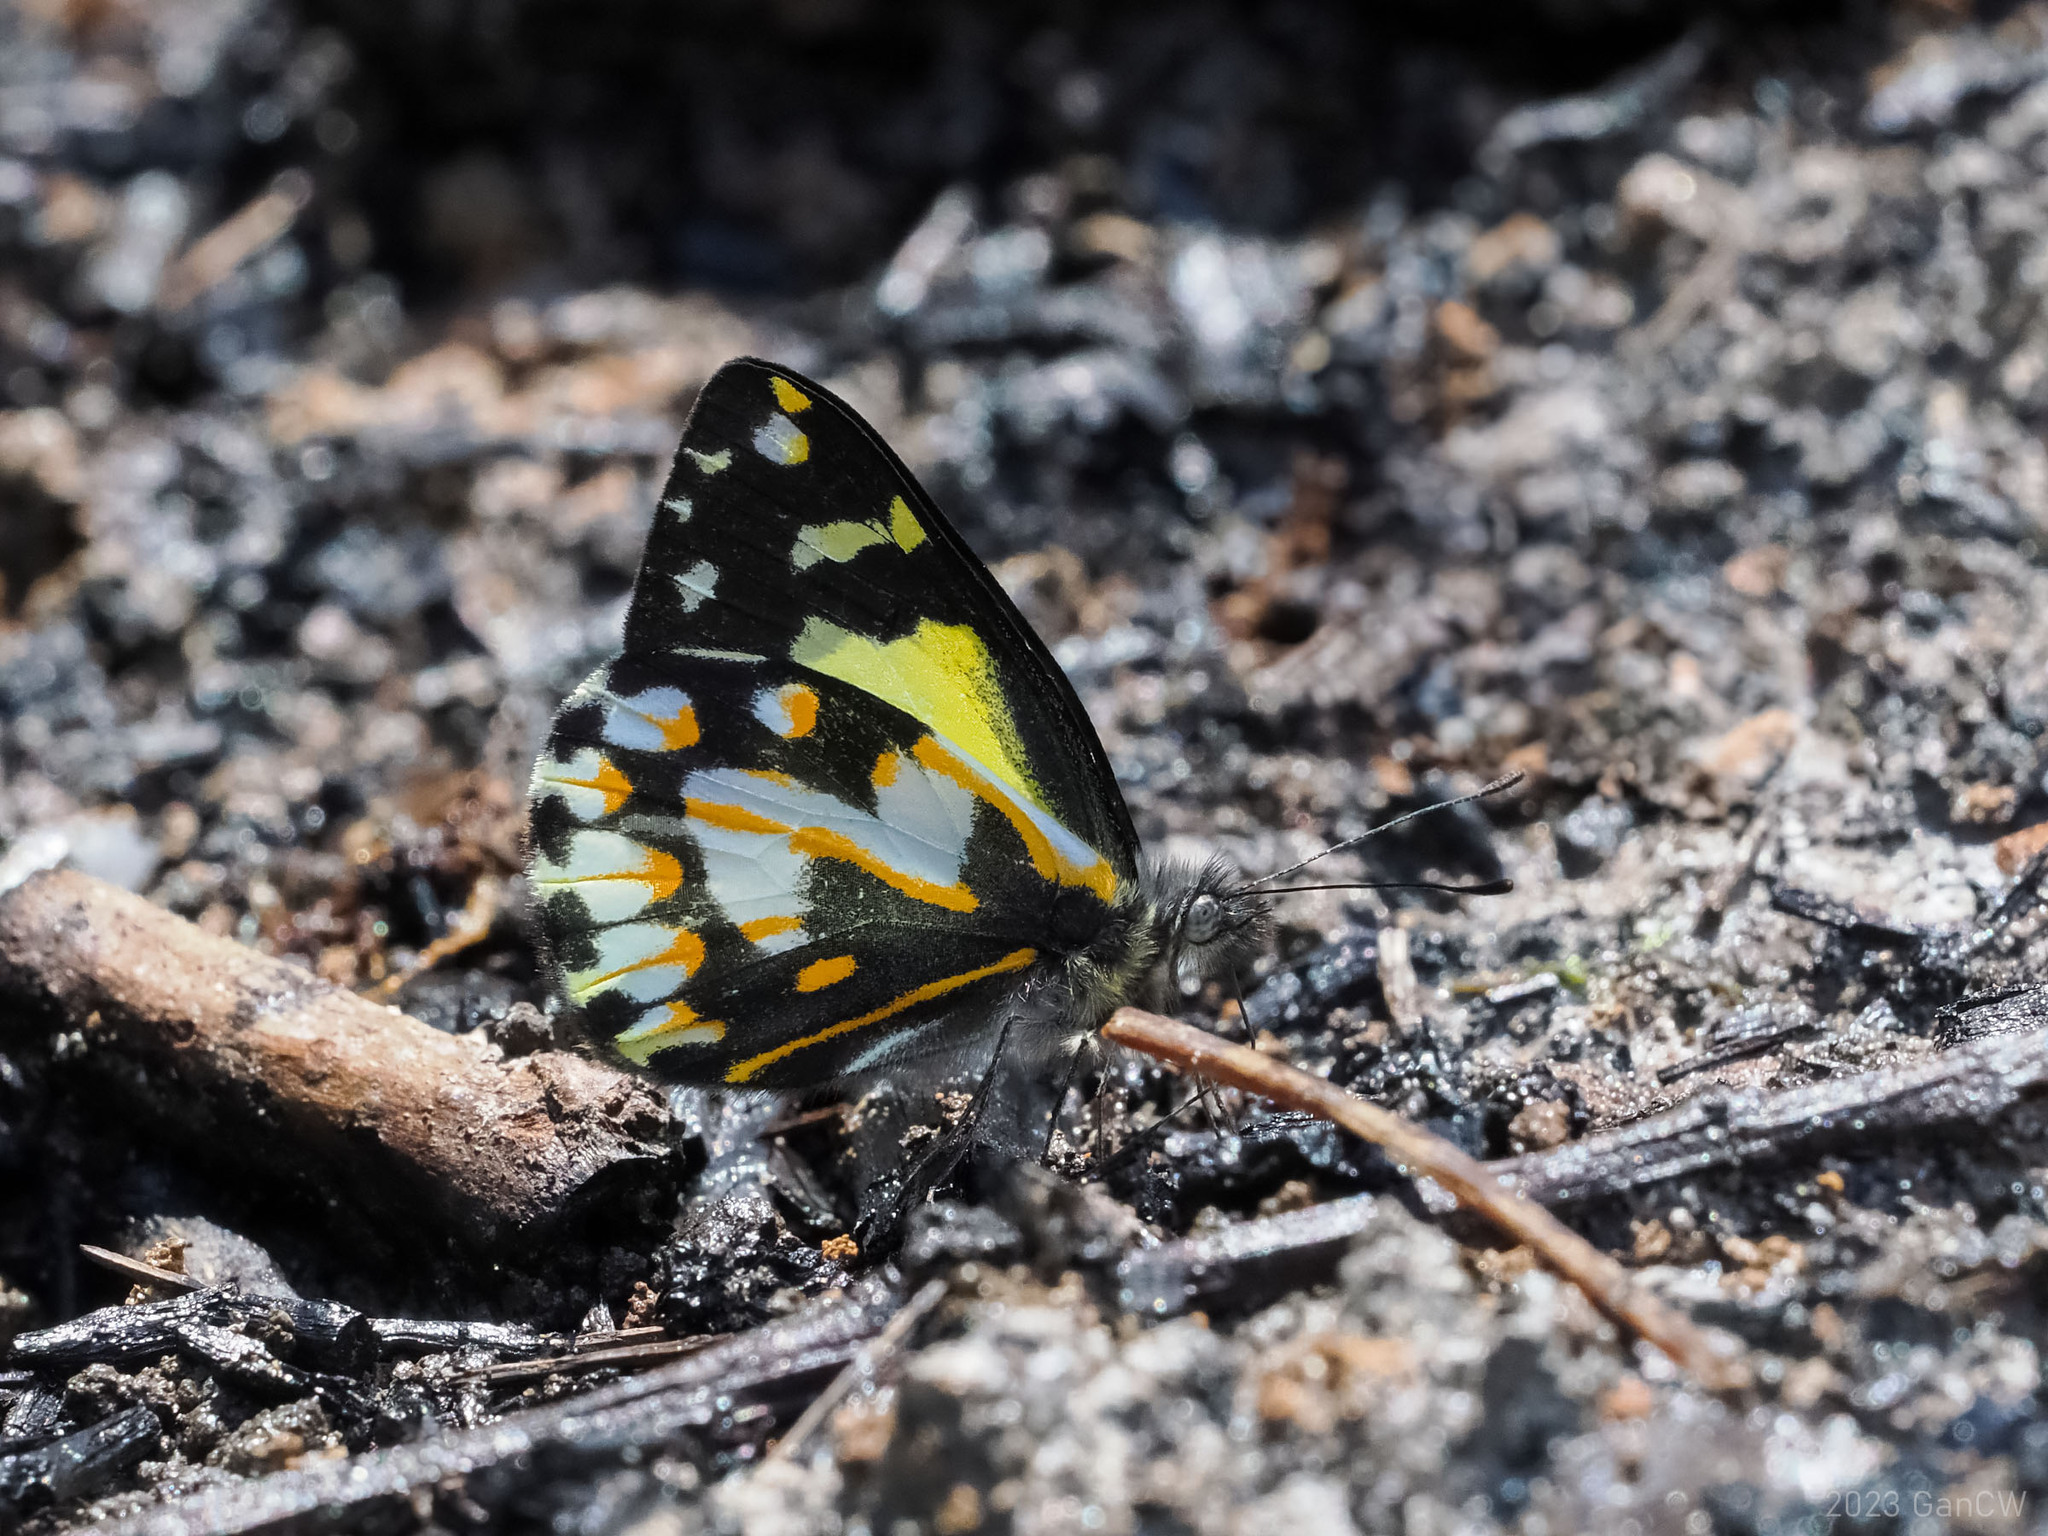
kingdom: Animalia
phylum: Arthropoda
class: Insecta
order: Lepidoptera
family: Pieridae
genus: Delias
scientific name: Delias catisa
